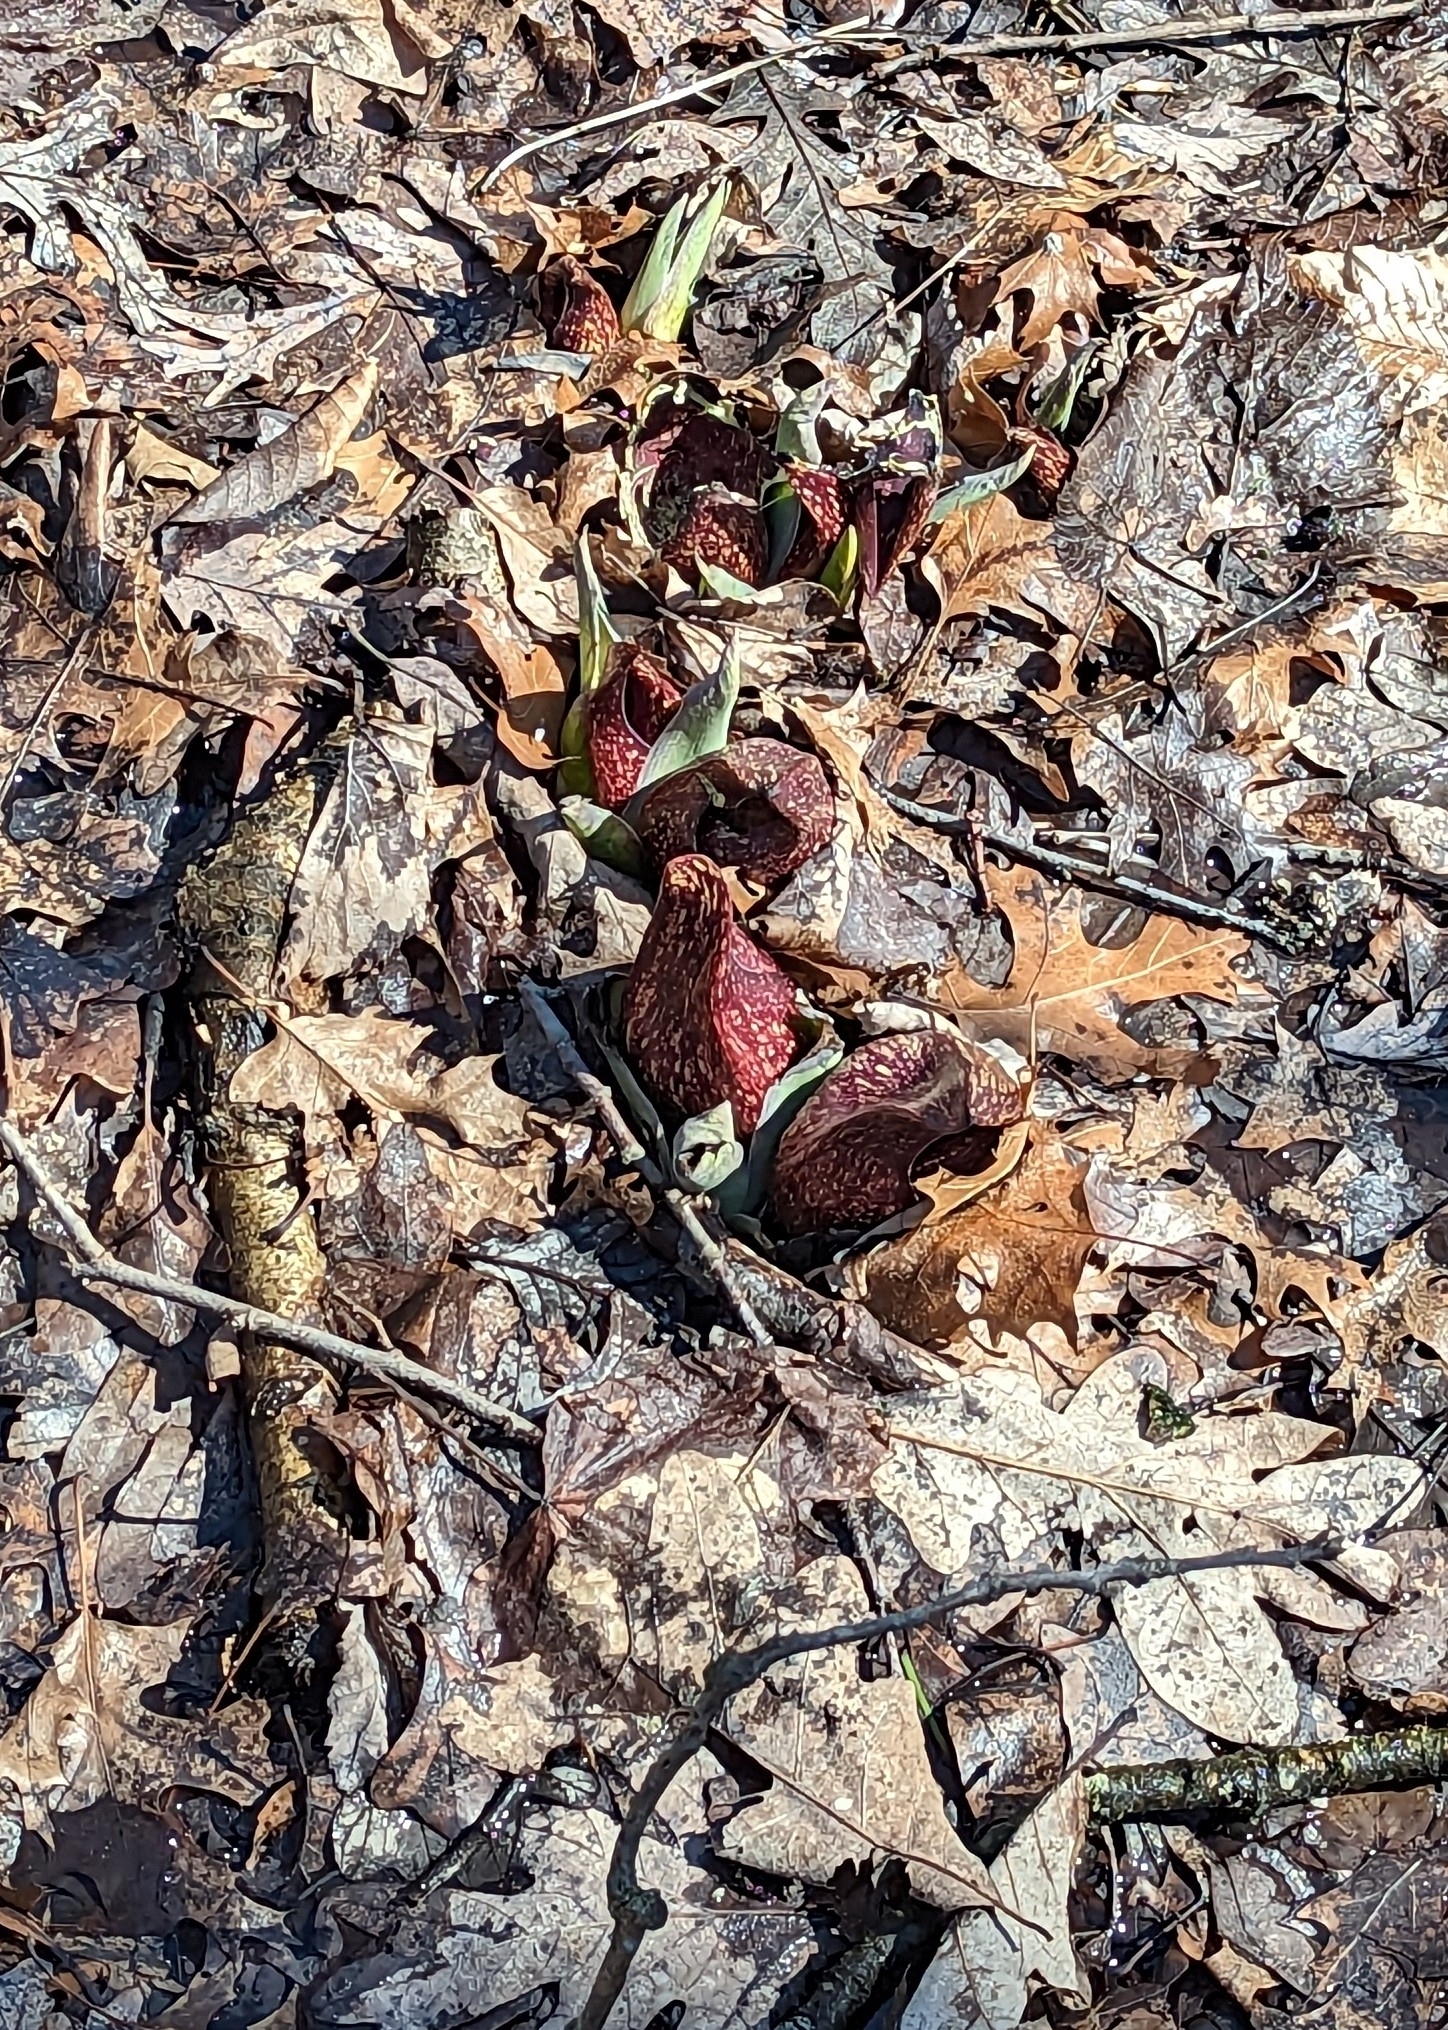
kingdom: Plantae
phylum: Tracheophyta
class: Liliopsida
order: Alismatales
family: Araceae
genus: Symplocarpus
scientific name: Symplocarpus foetidus
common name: Eastern skunk cabbage
